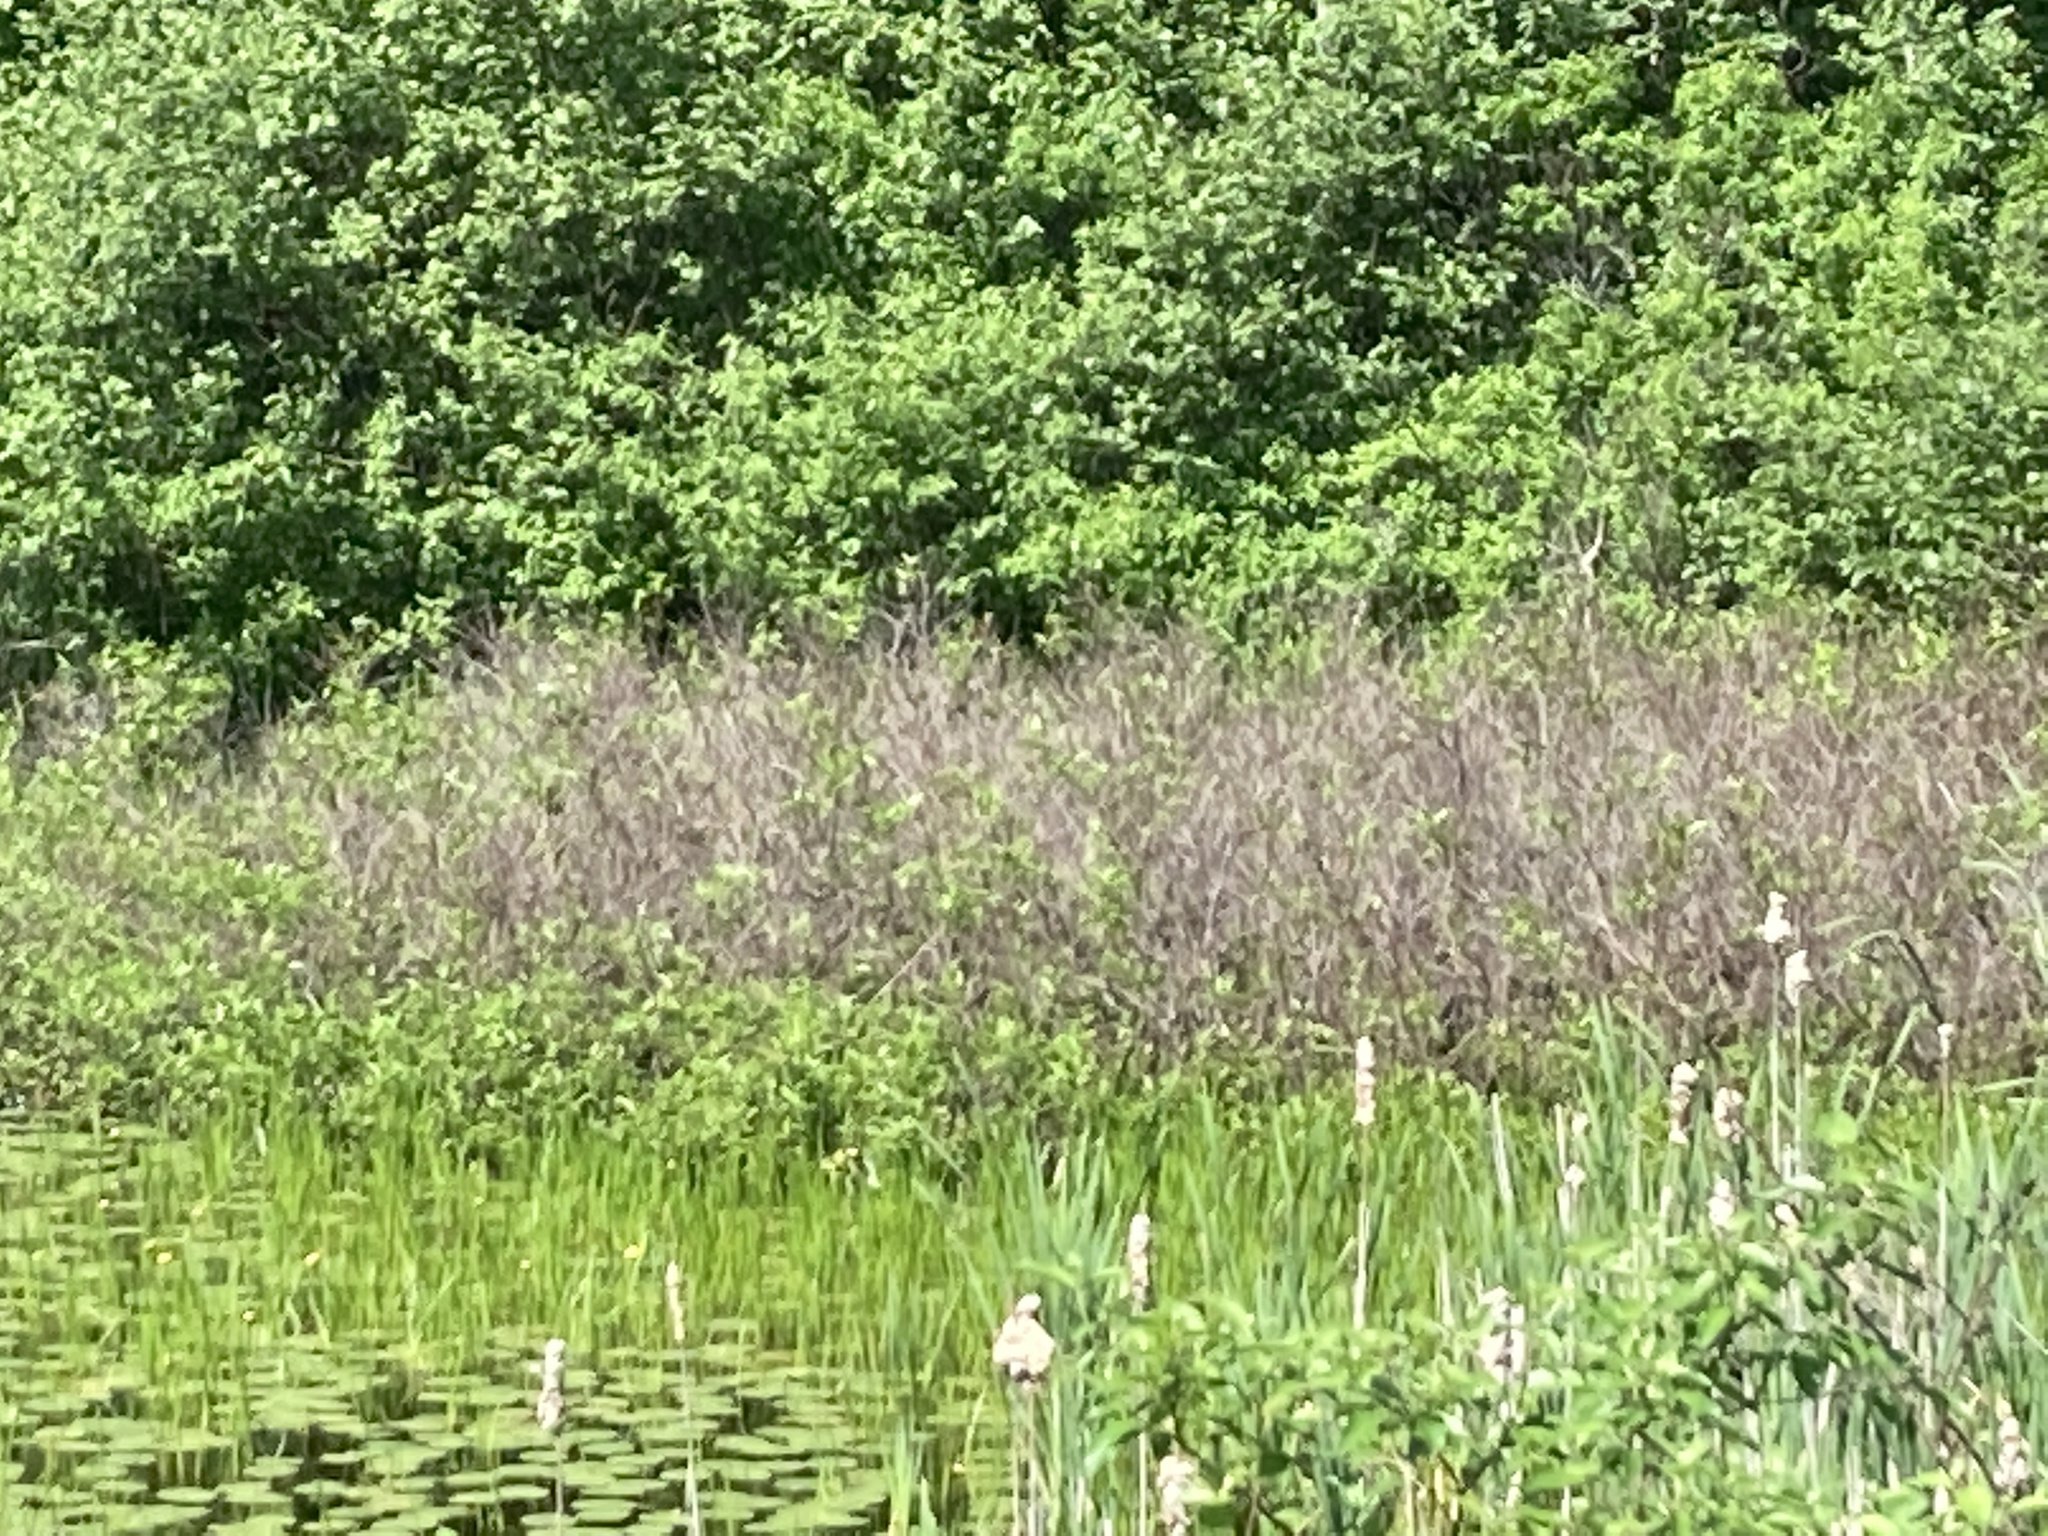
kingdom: Plantae
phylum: Tracheophyta
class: Magnoliopsida
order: Gentianales
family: Rubiaceae
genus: Cephalanthus
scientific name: Cephalanthus occidentalis
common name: Button-willow
